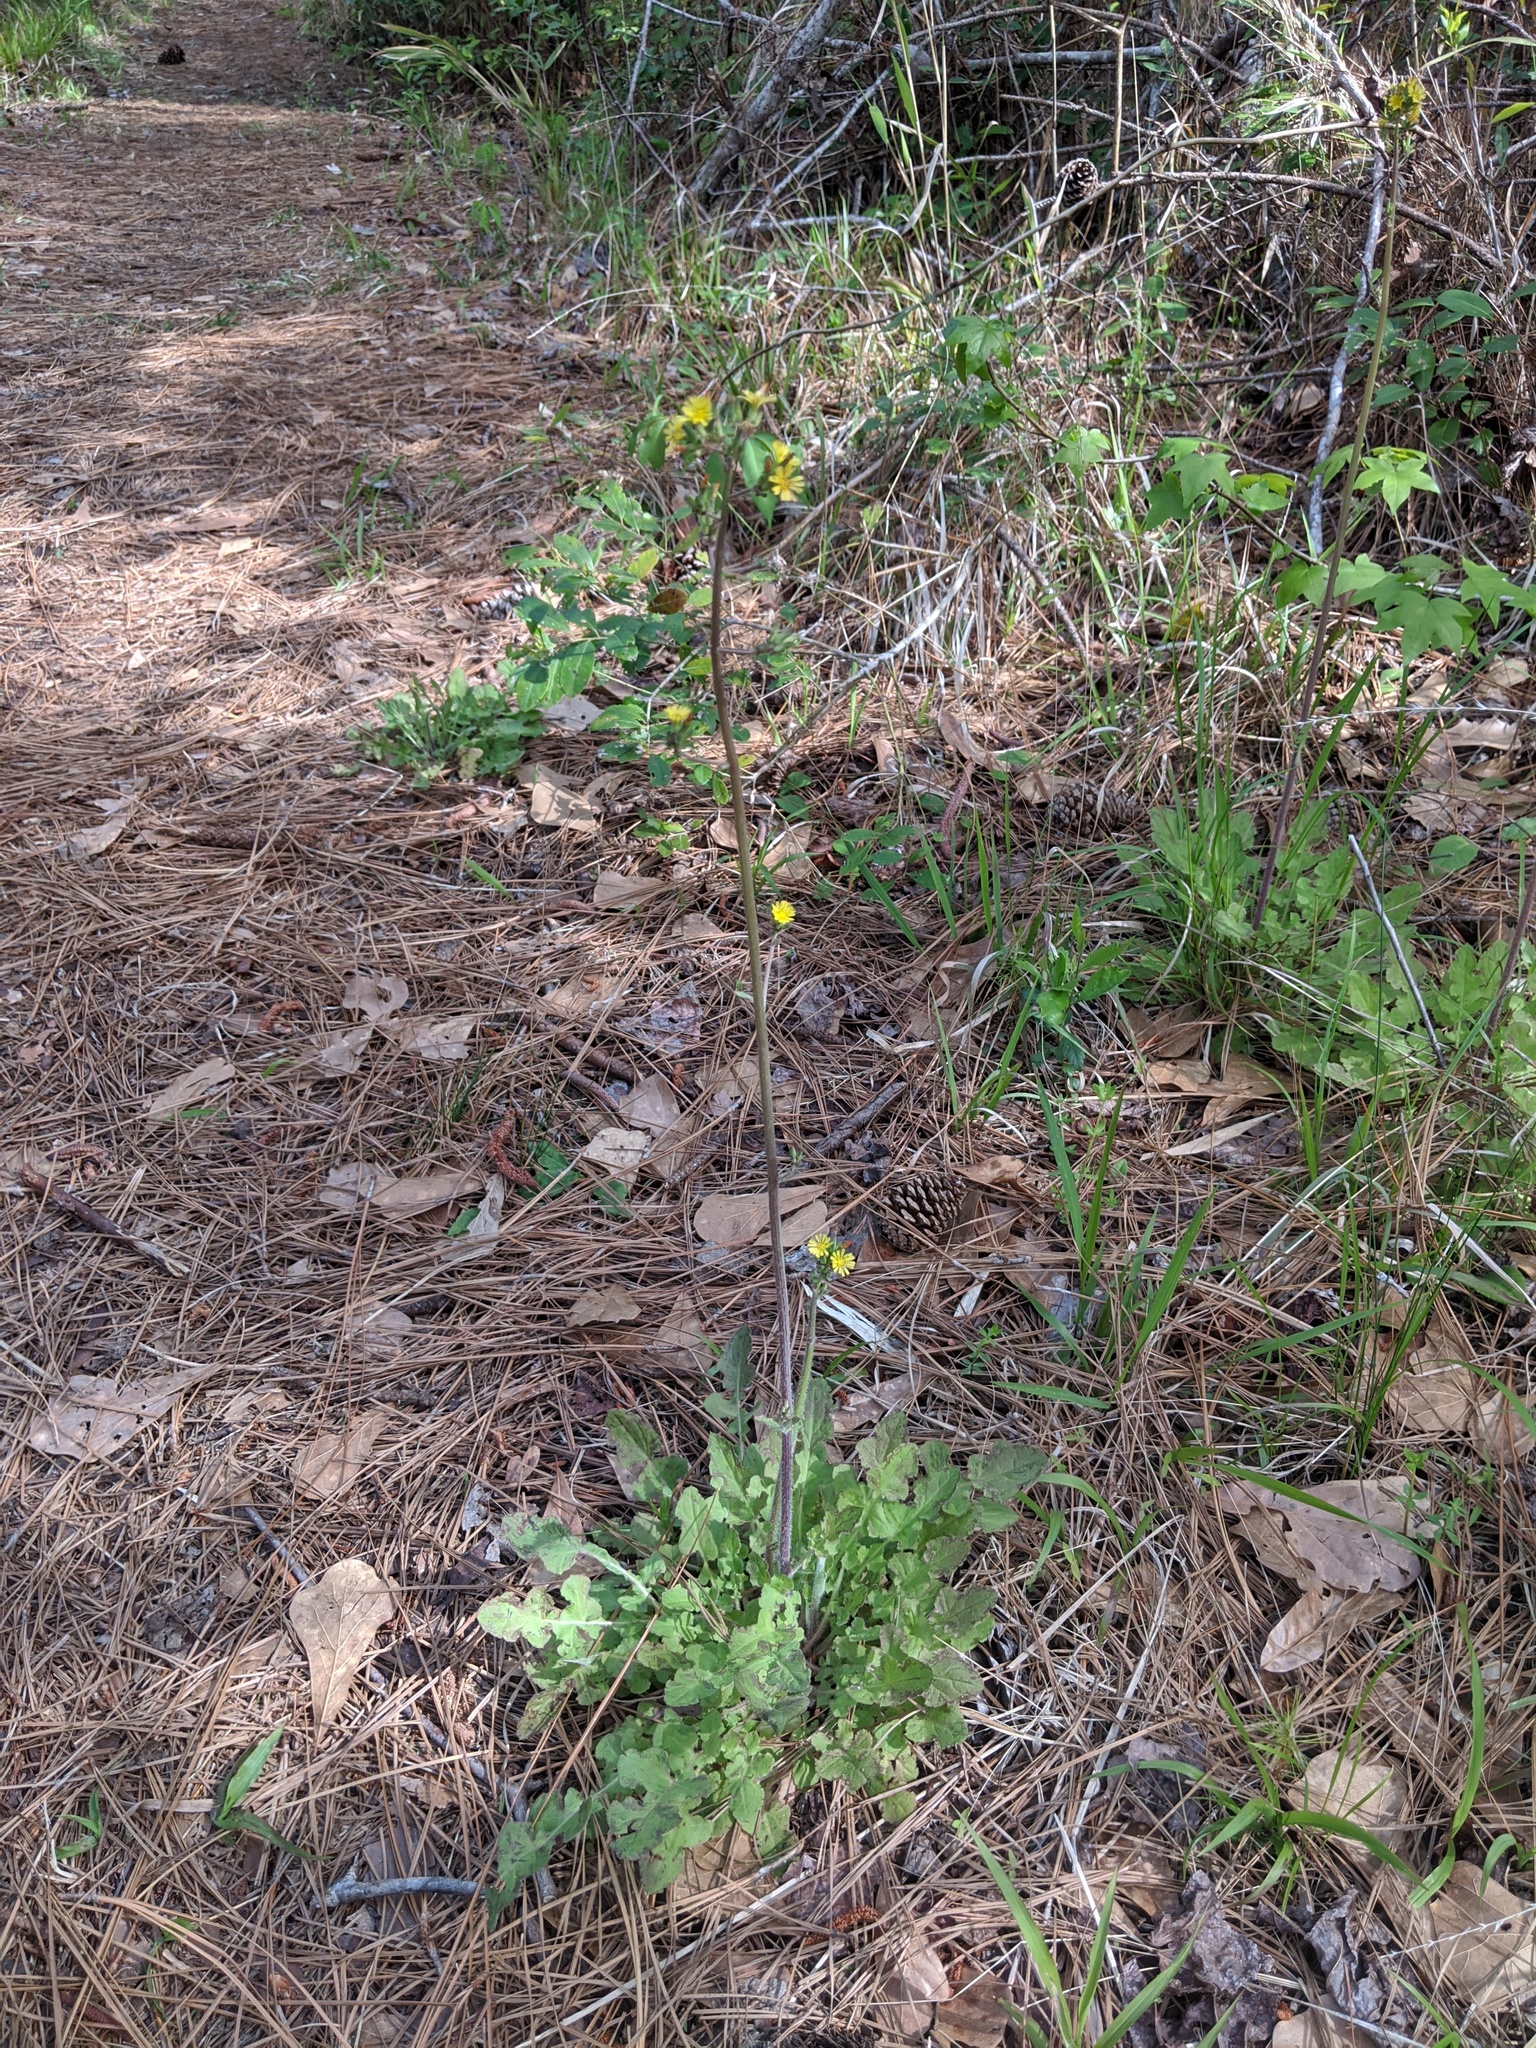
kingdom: Plantae
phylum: Tracheophyta
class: Magnoliopsida
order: Asterales
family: Asteraceae
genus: Youngia
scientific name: Youngia japonica
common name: Oriental false hawksbeard
